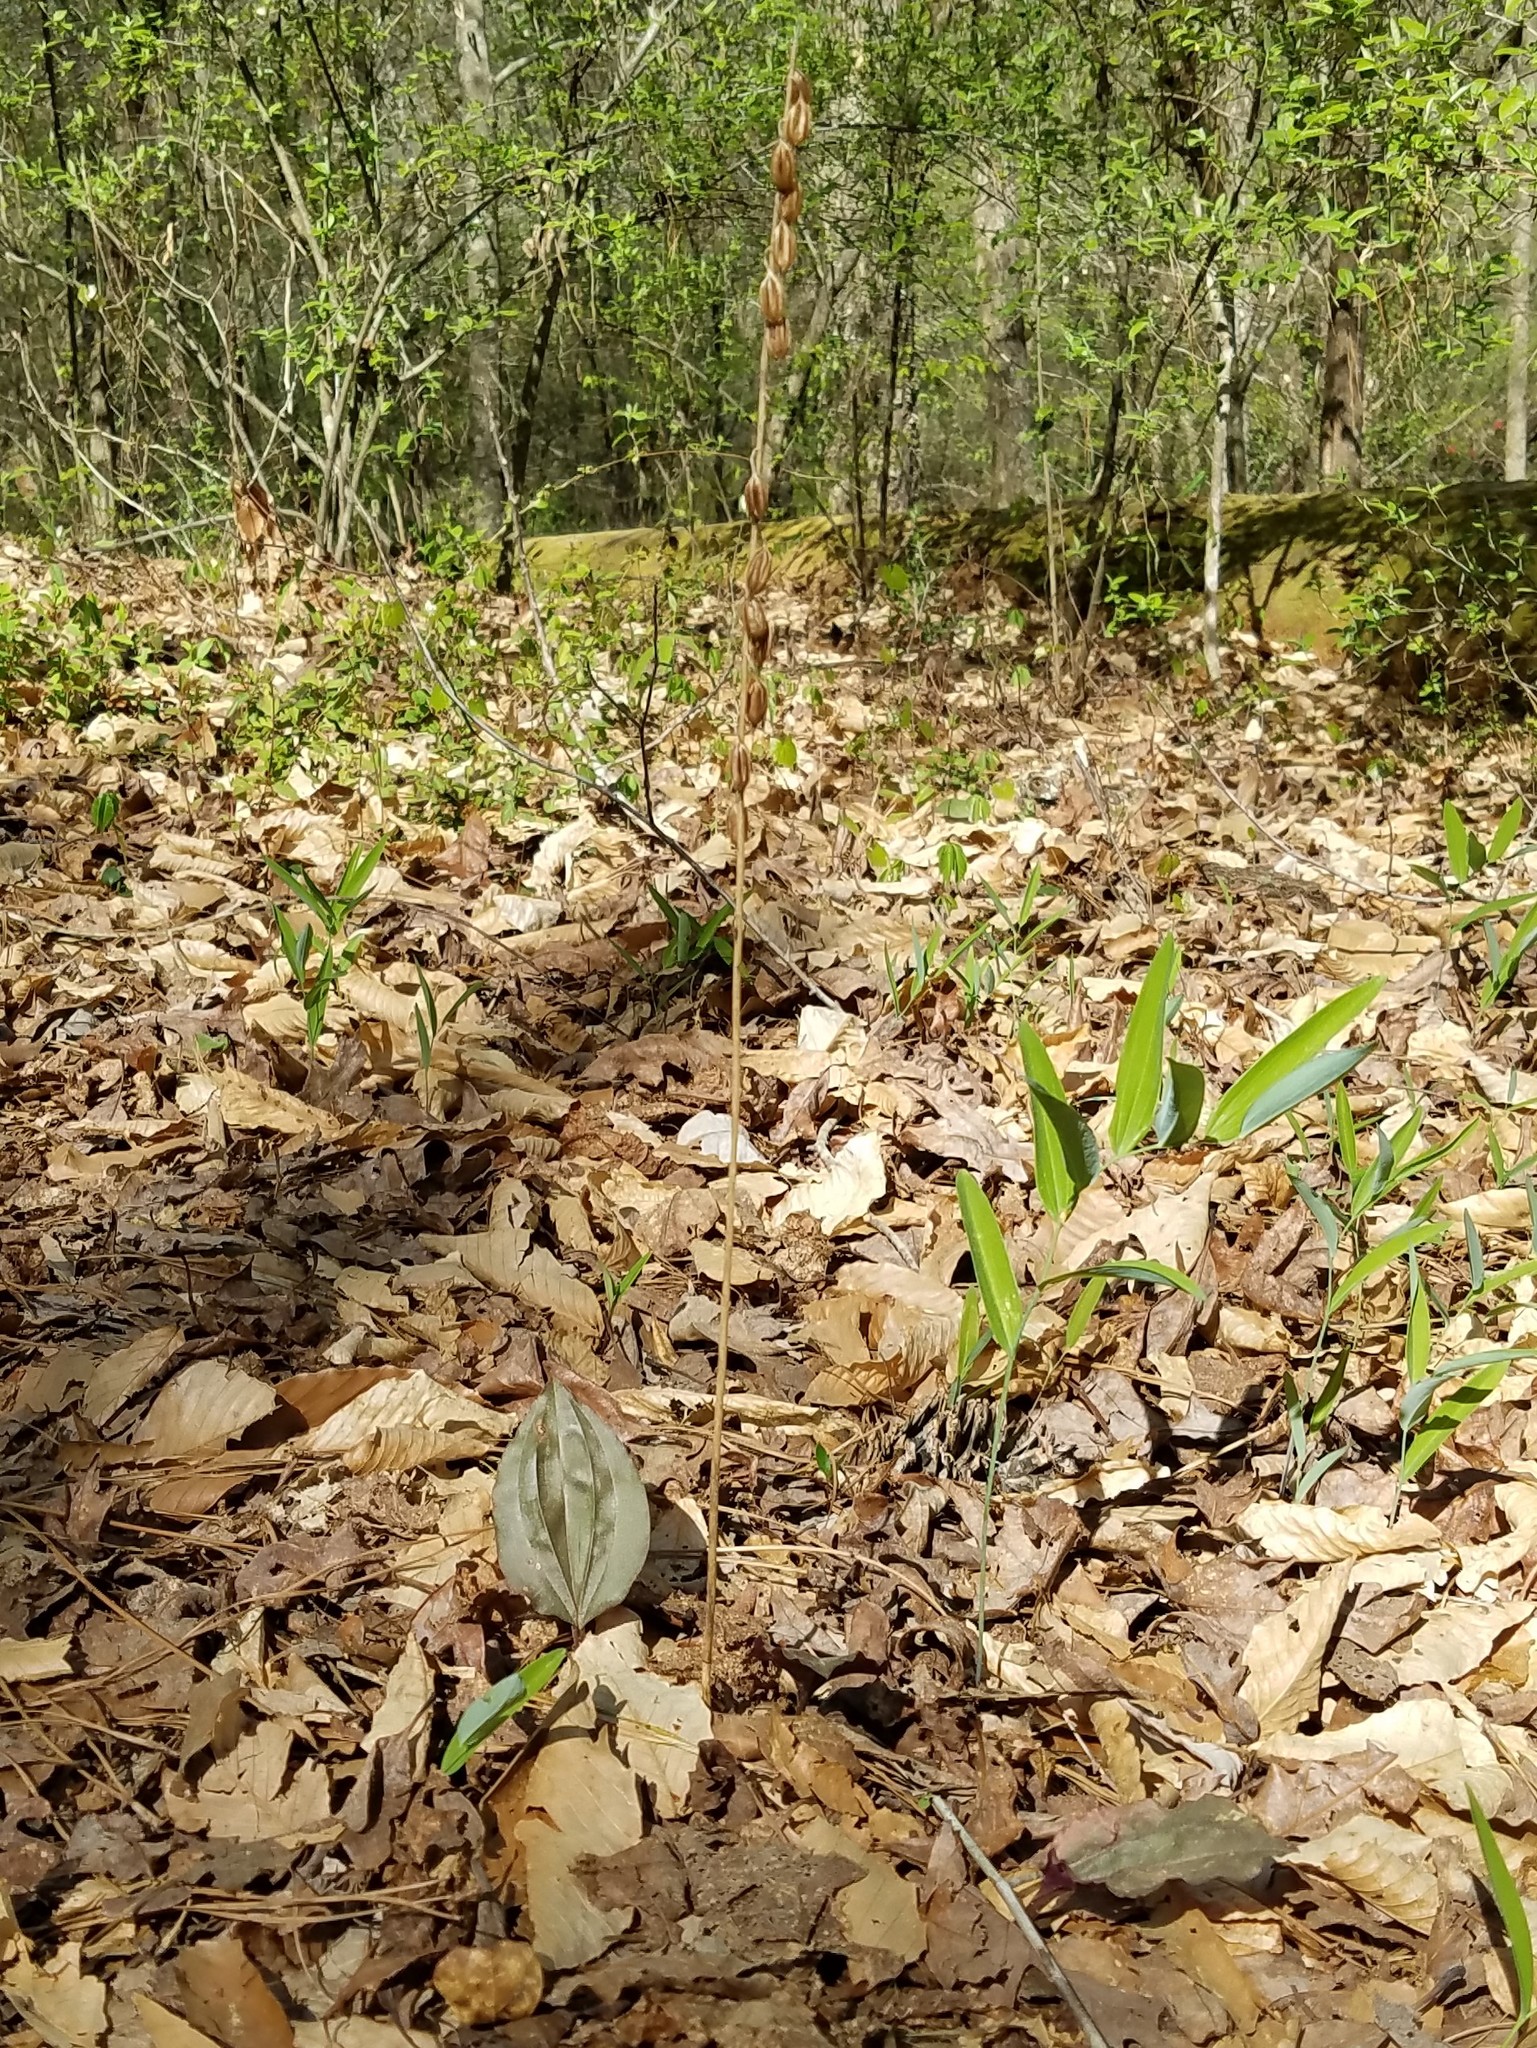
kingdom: Plantae
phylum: Tracheophyta
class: Liliopsida
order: Asparagales
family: Orchidaceae
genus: Tipularia
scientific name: Tipularia discolor
